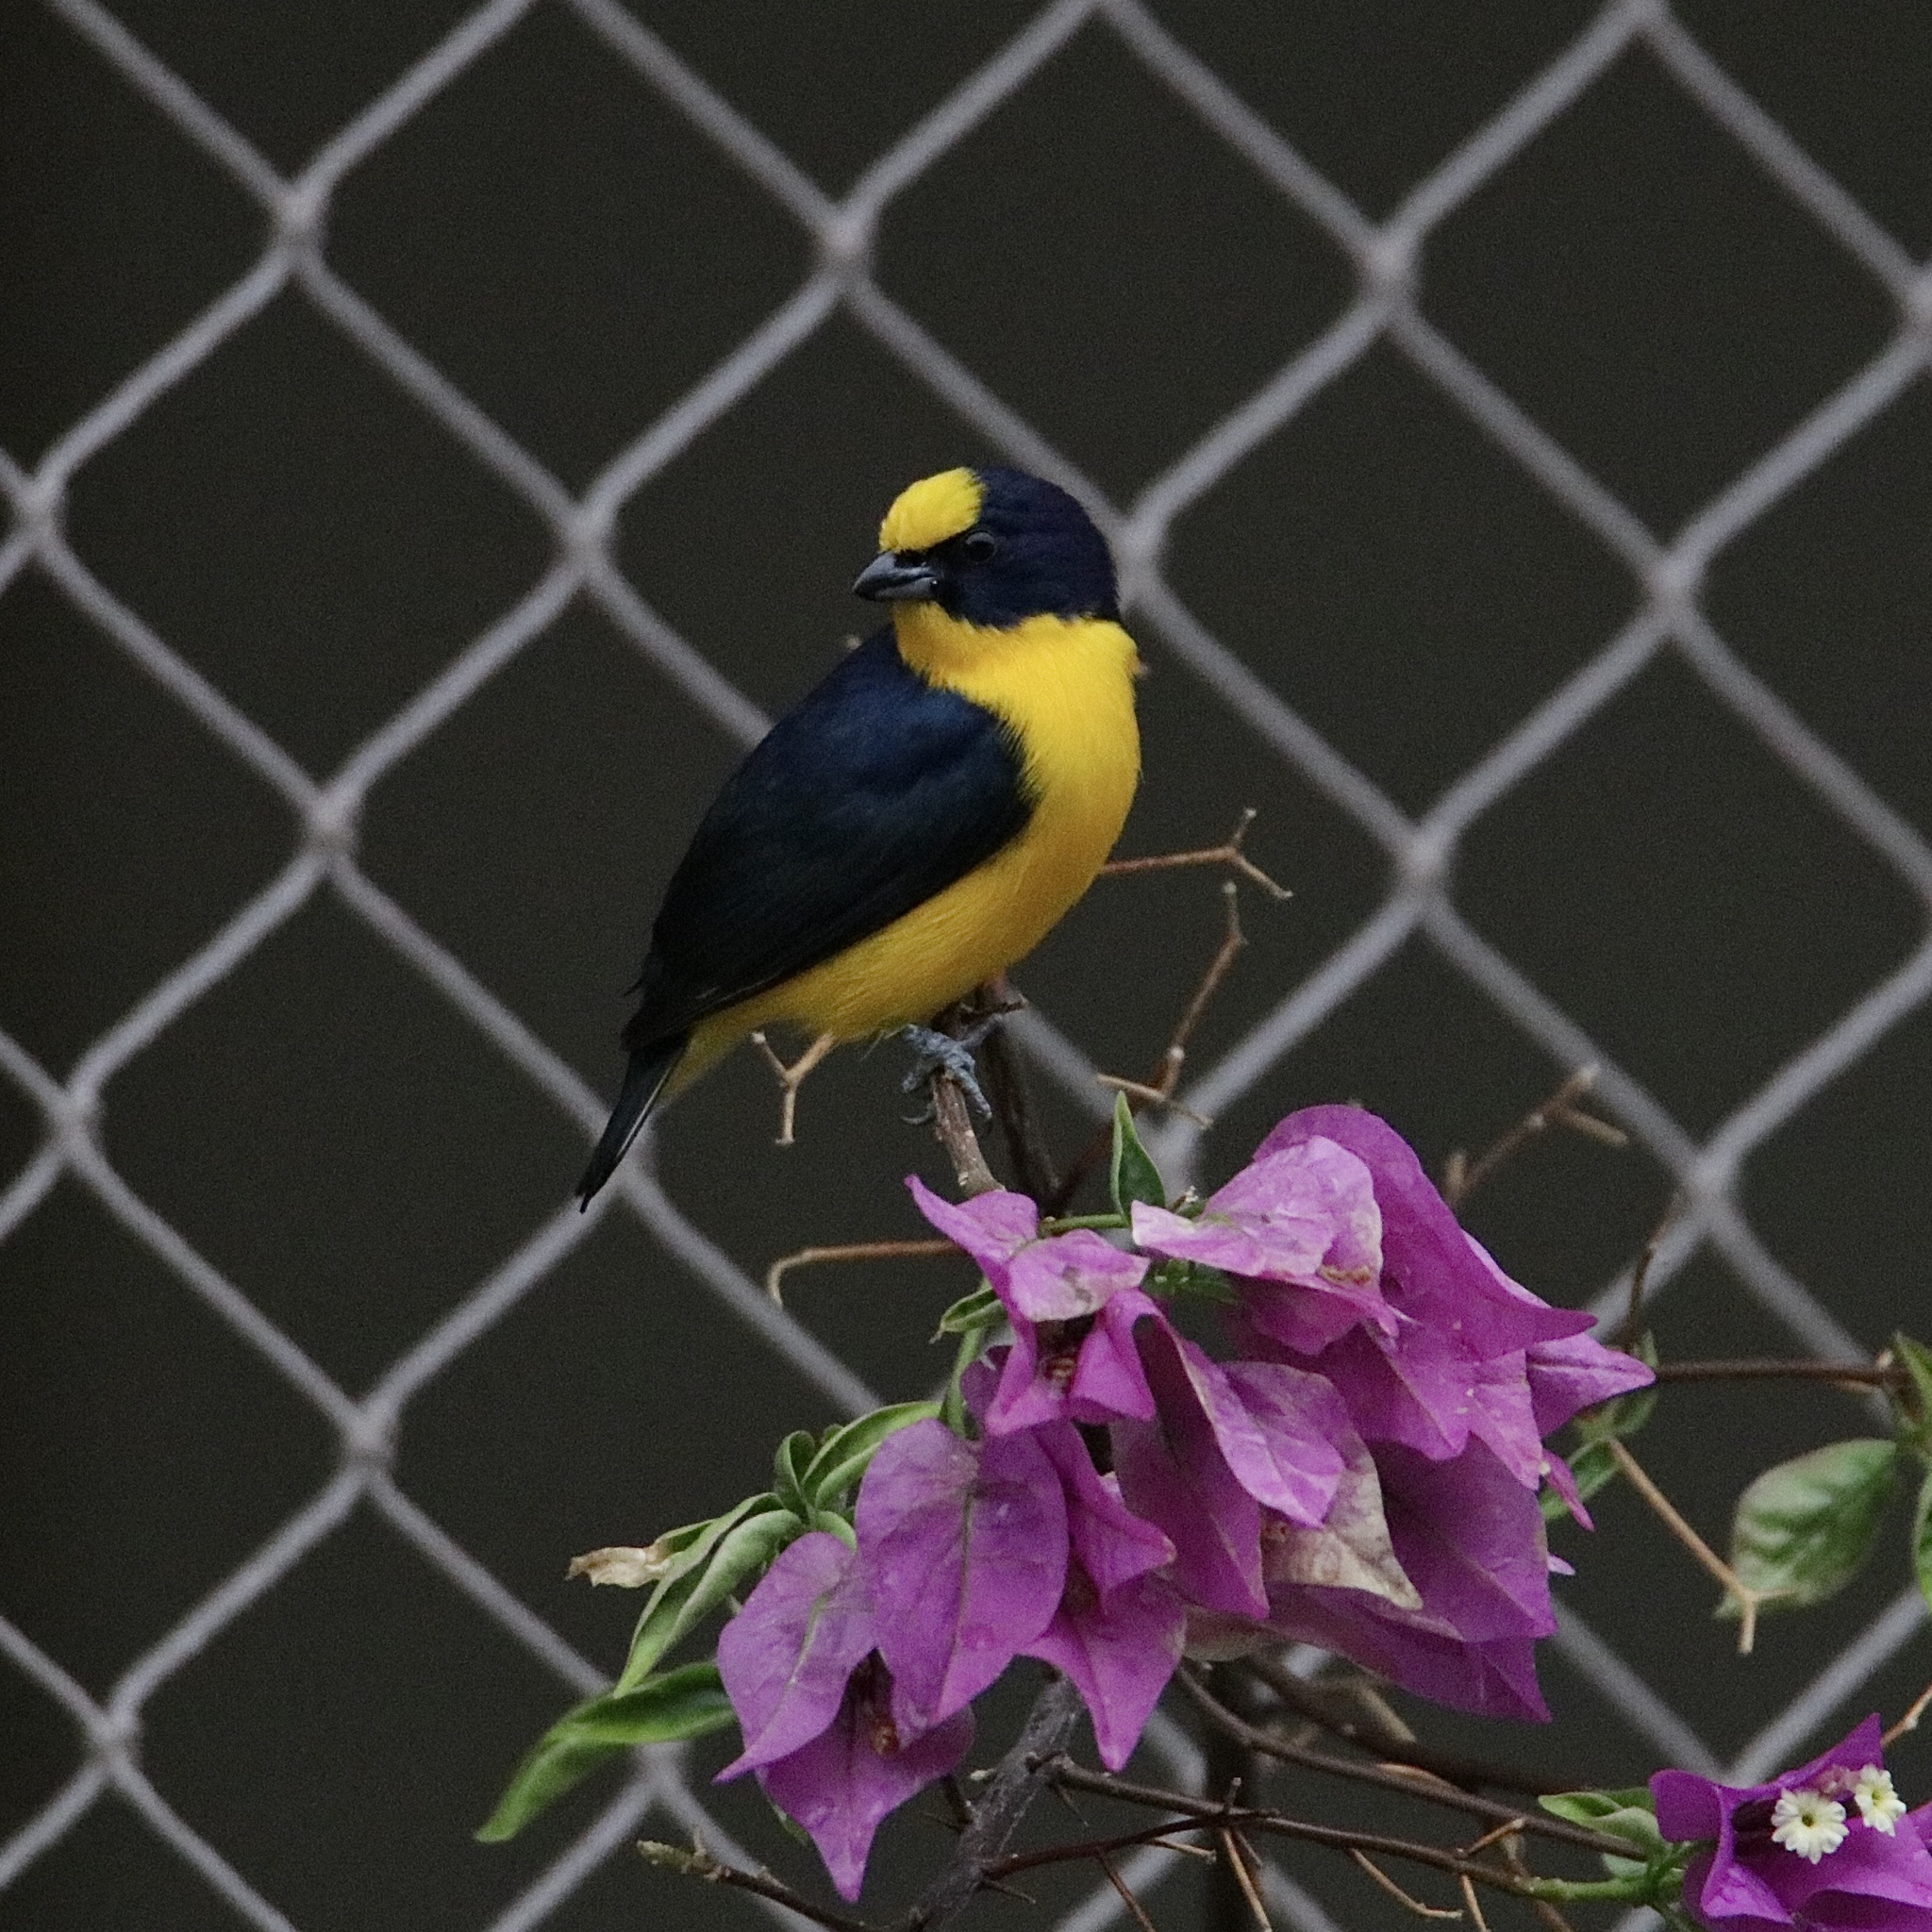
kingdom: Animalia
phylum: Chordata
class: Aves
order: Passeriformes
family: Fringillidae
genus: Euphonia
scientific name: Euphonia laniirostris
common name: Thick-billed euphonia
